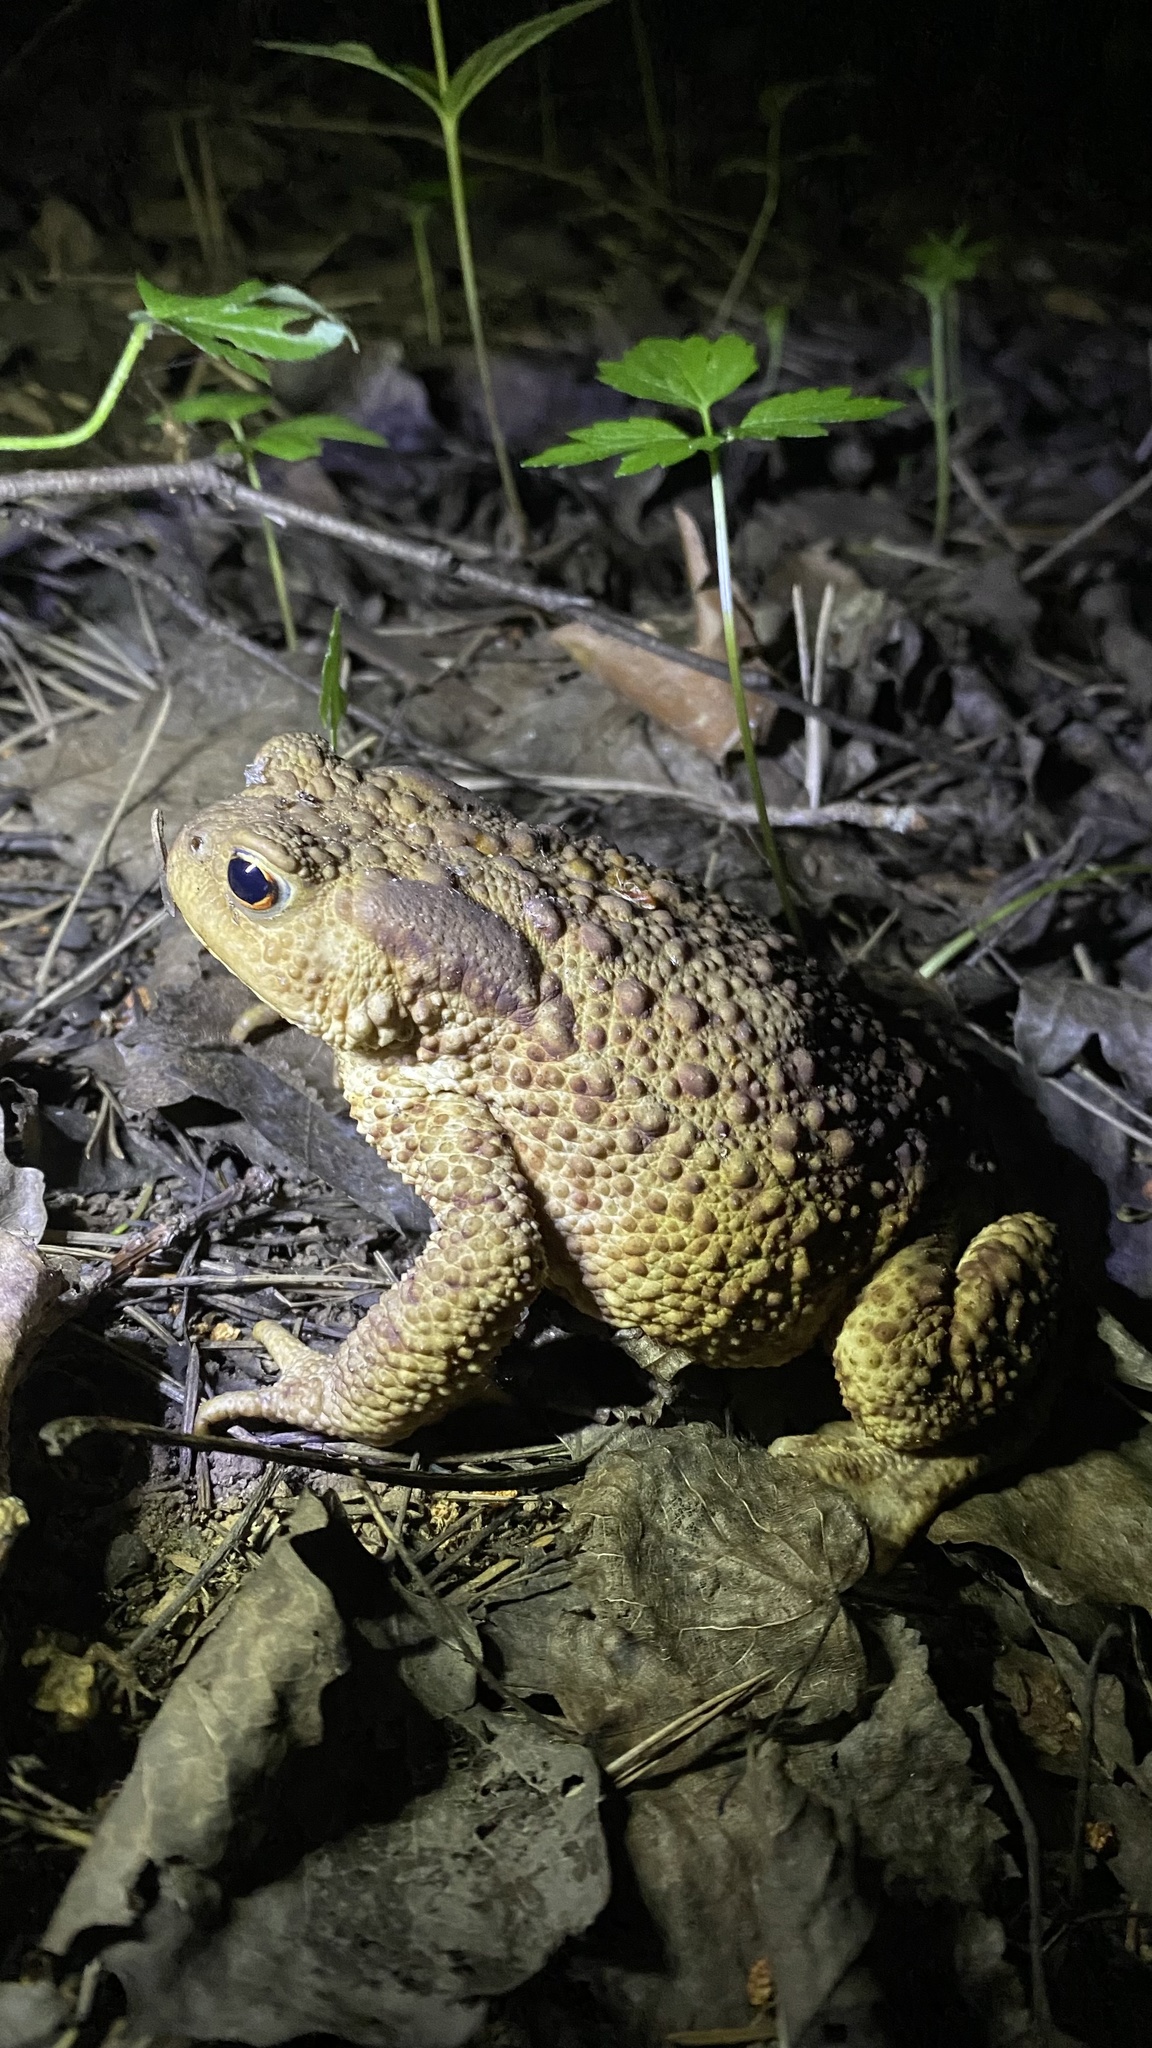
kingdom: Animalia
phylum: Chordata
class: Amphibia
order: Anura
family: Bufonidae
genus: Bufo
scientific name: Bufo bufo
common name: Common toad
